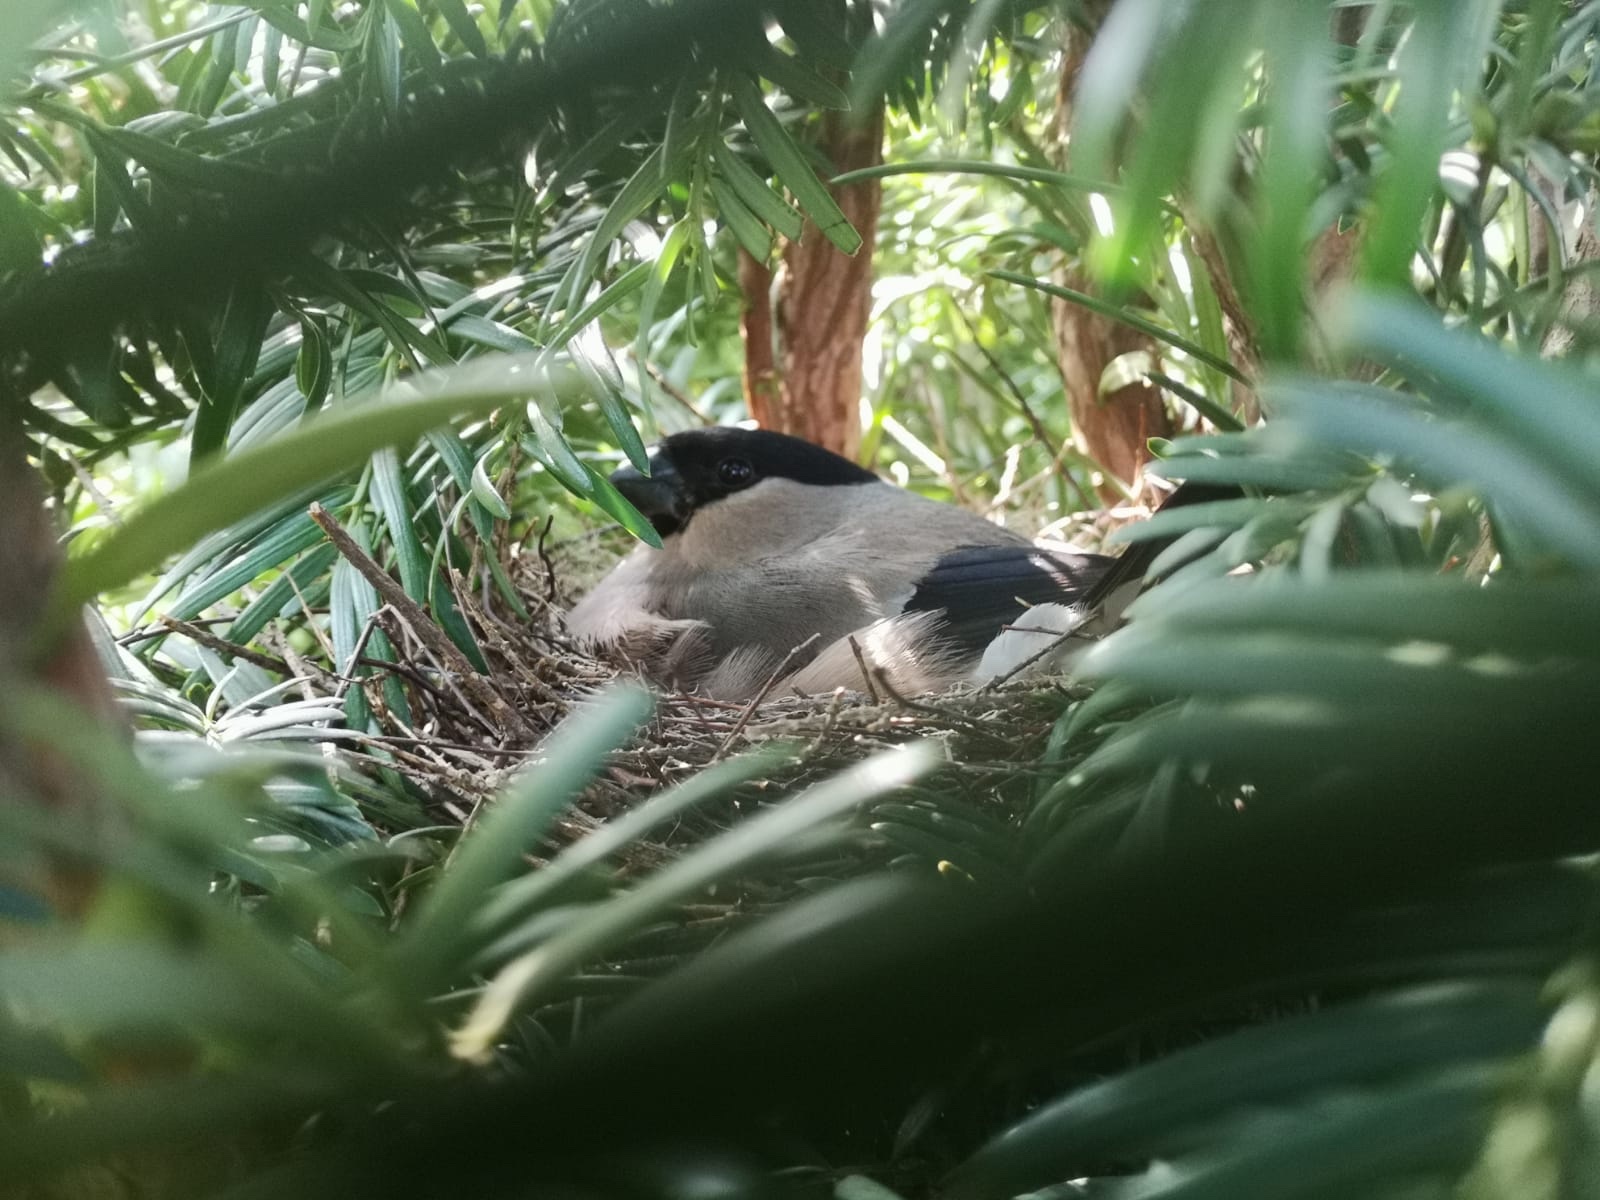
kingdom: Animalia
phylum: Chordata
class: Aves
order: Passeriformes
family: Fringillidae
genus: Pyrrhula
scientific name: Pyrrhula pyrrhula
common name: Eurasian bullfinch
